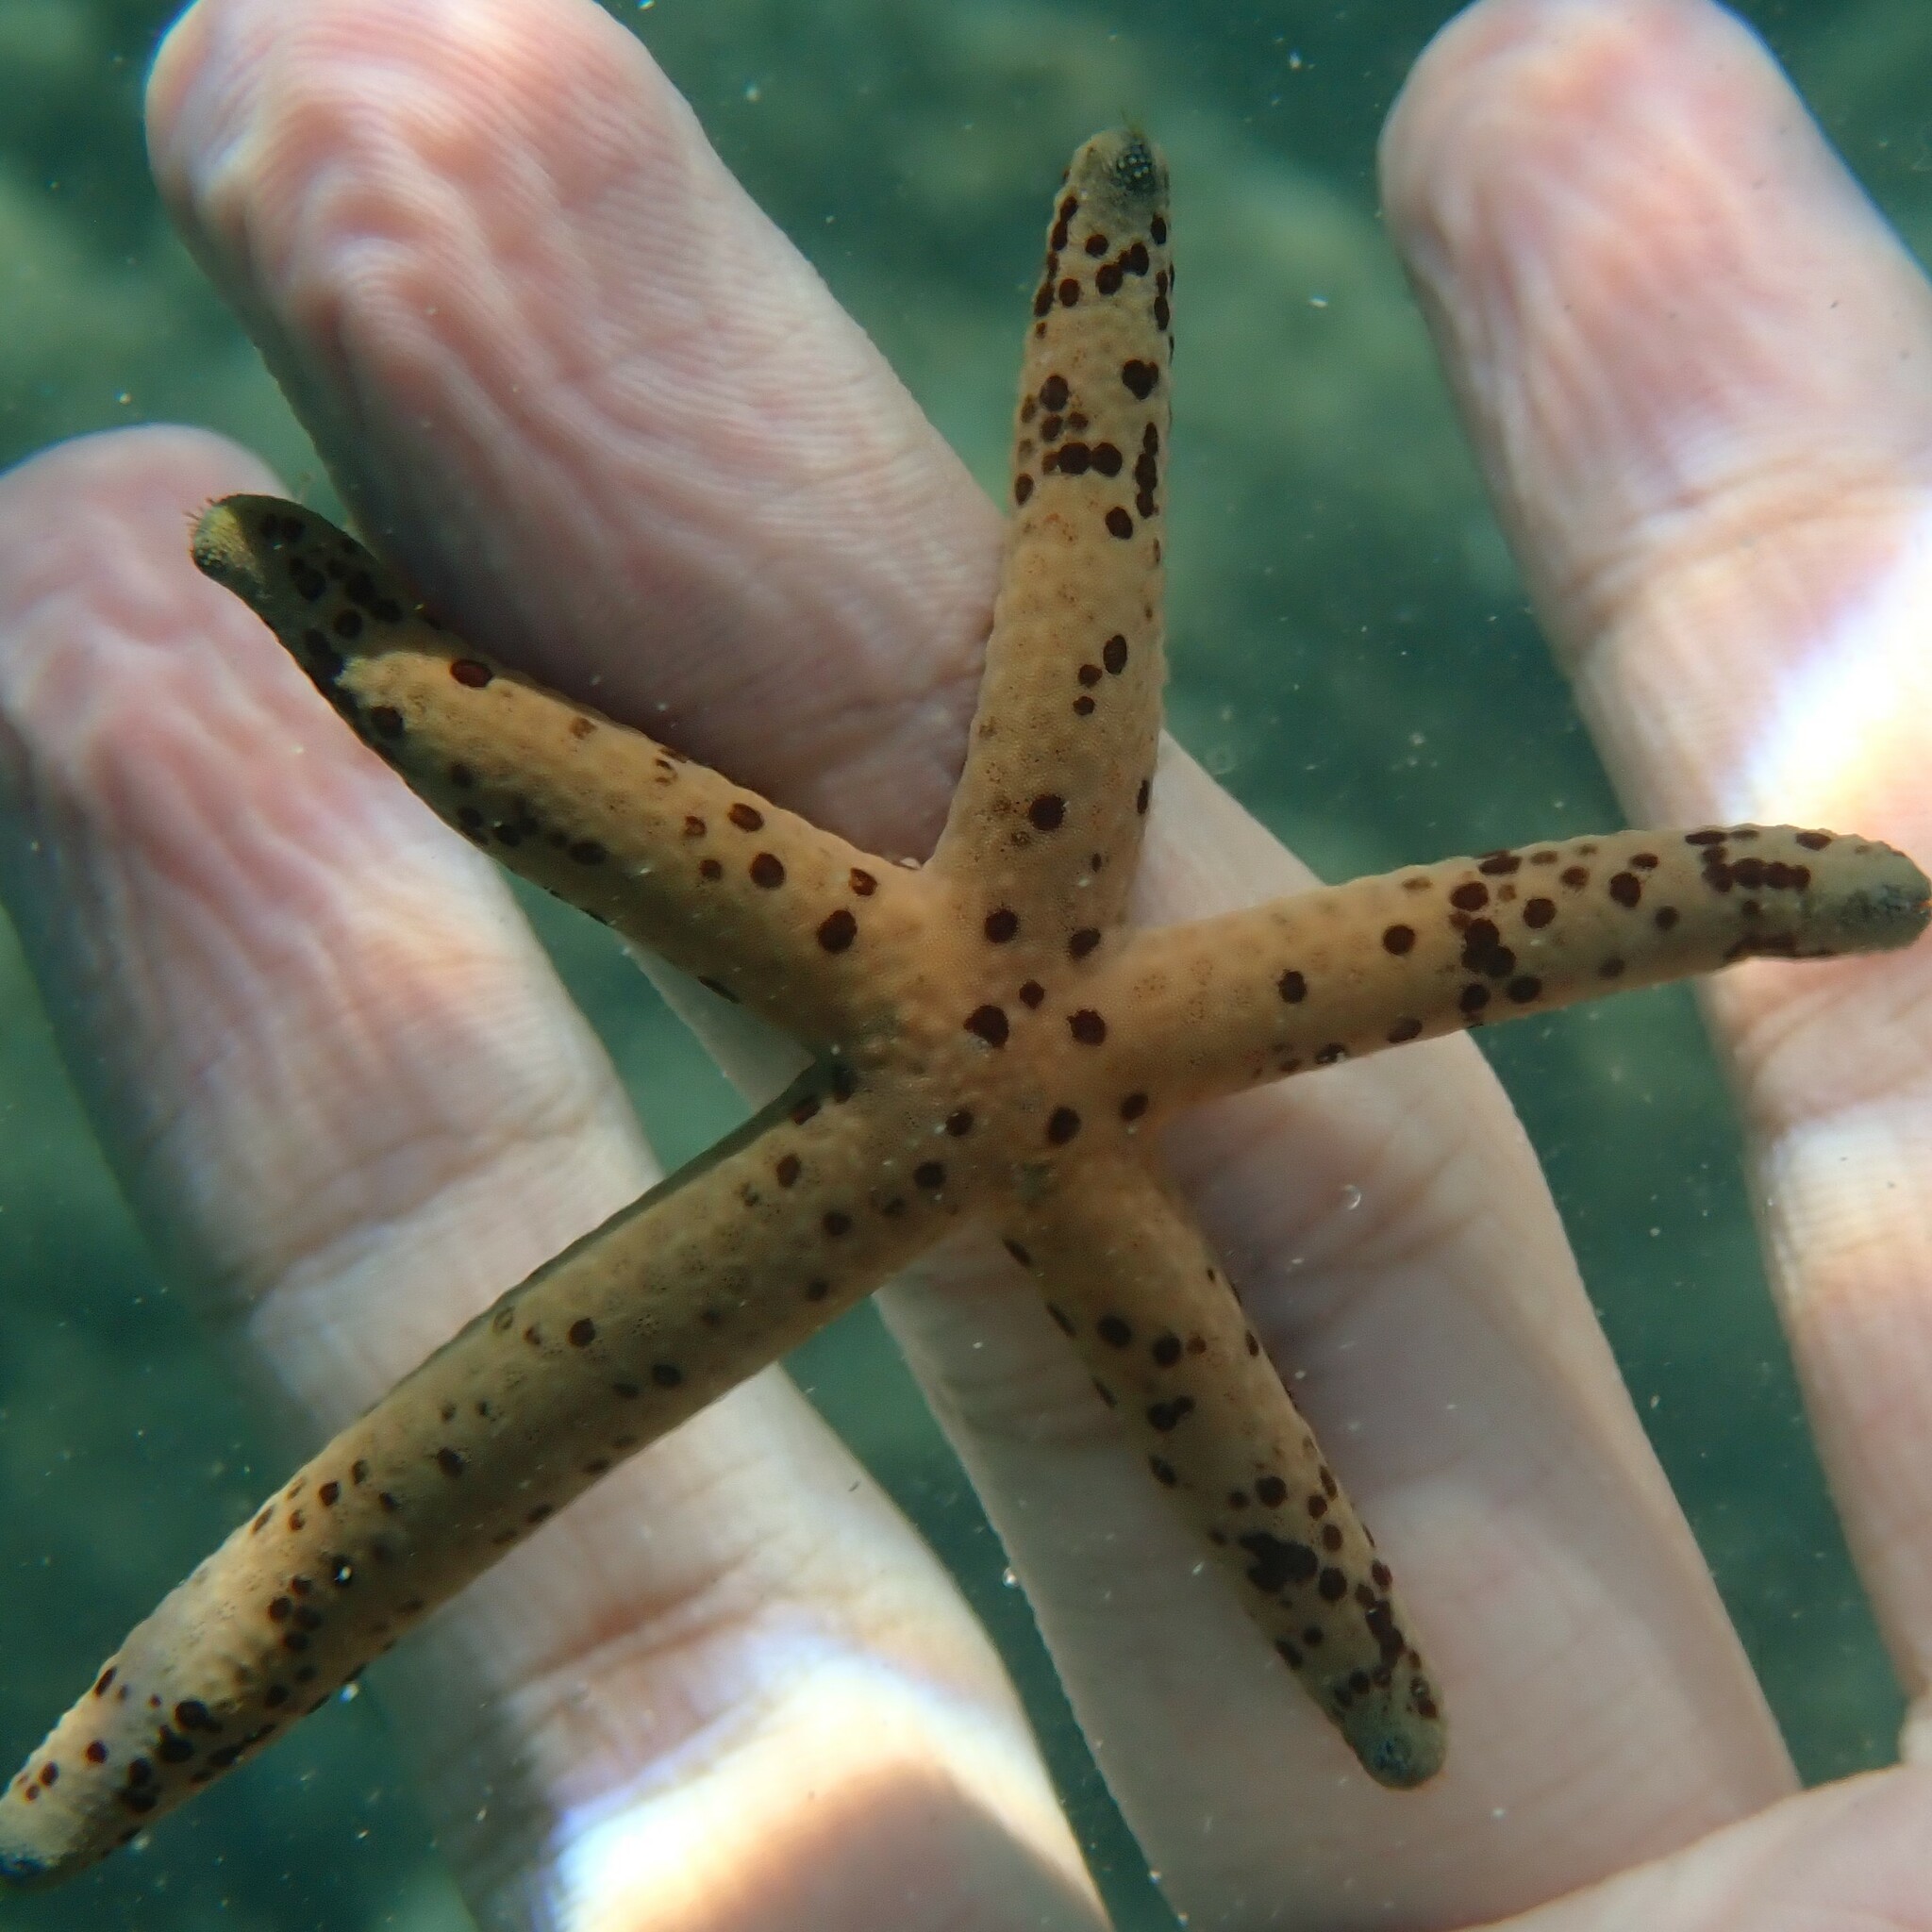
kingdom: Animalia
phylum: Echinodermata
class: Asteroidea
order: Valvatida
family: Ophidiasteridae
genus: Linckia
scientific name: Linckia multifora
